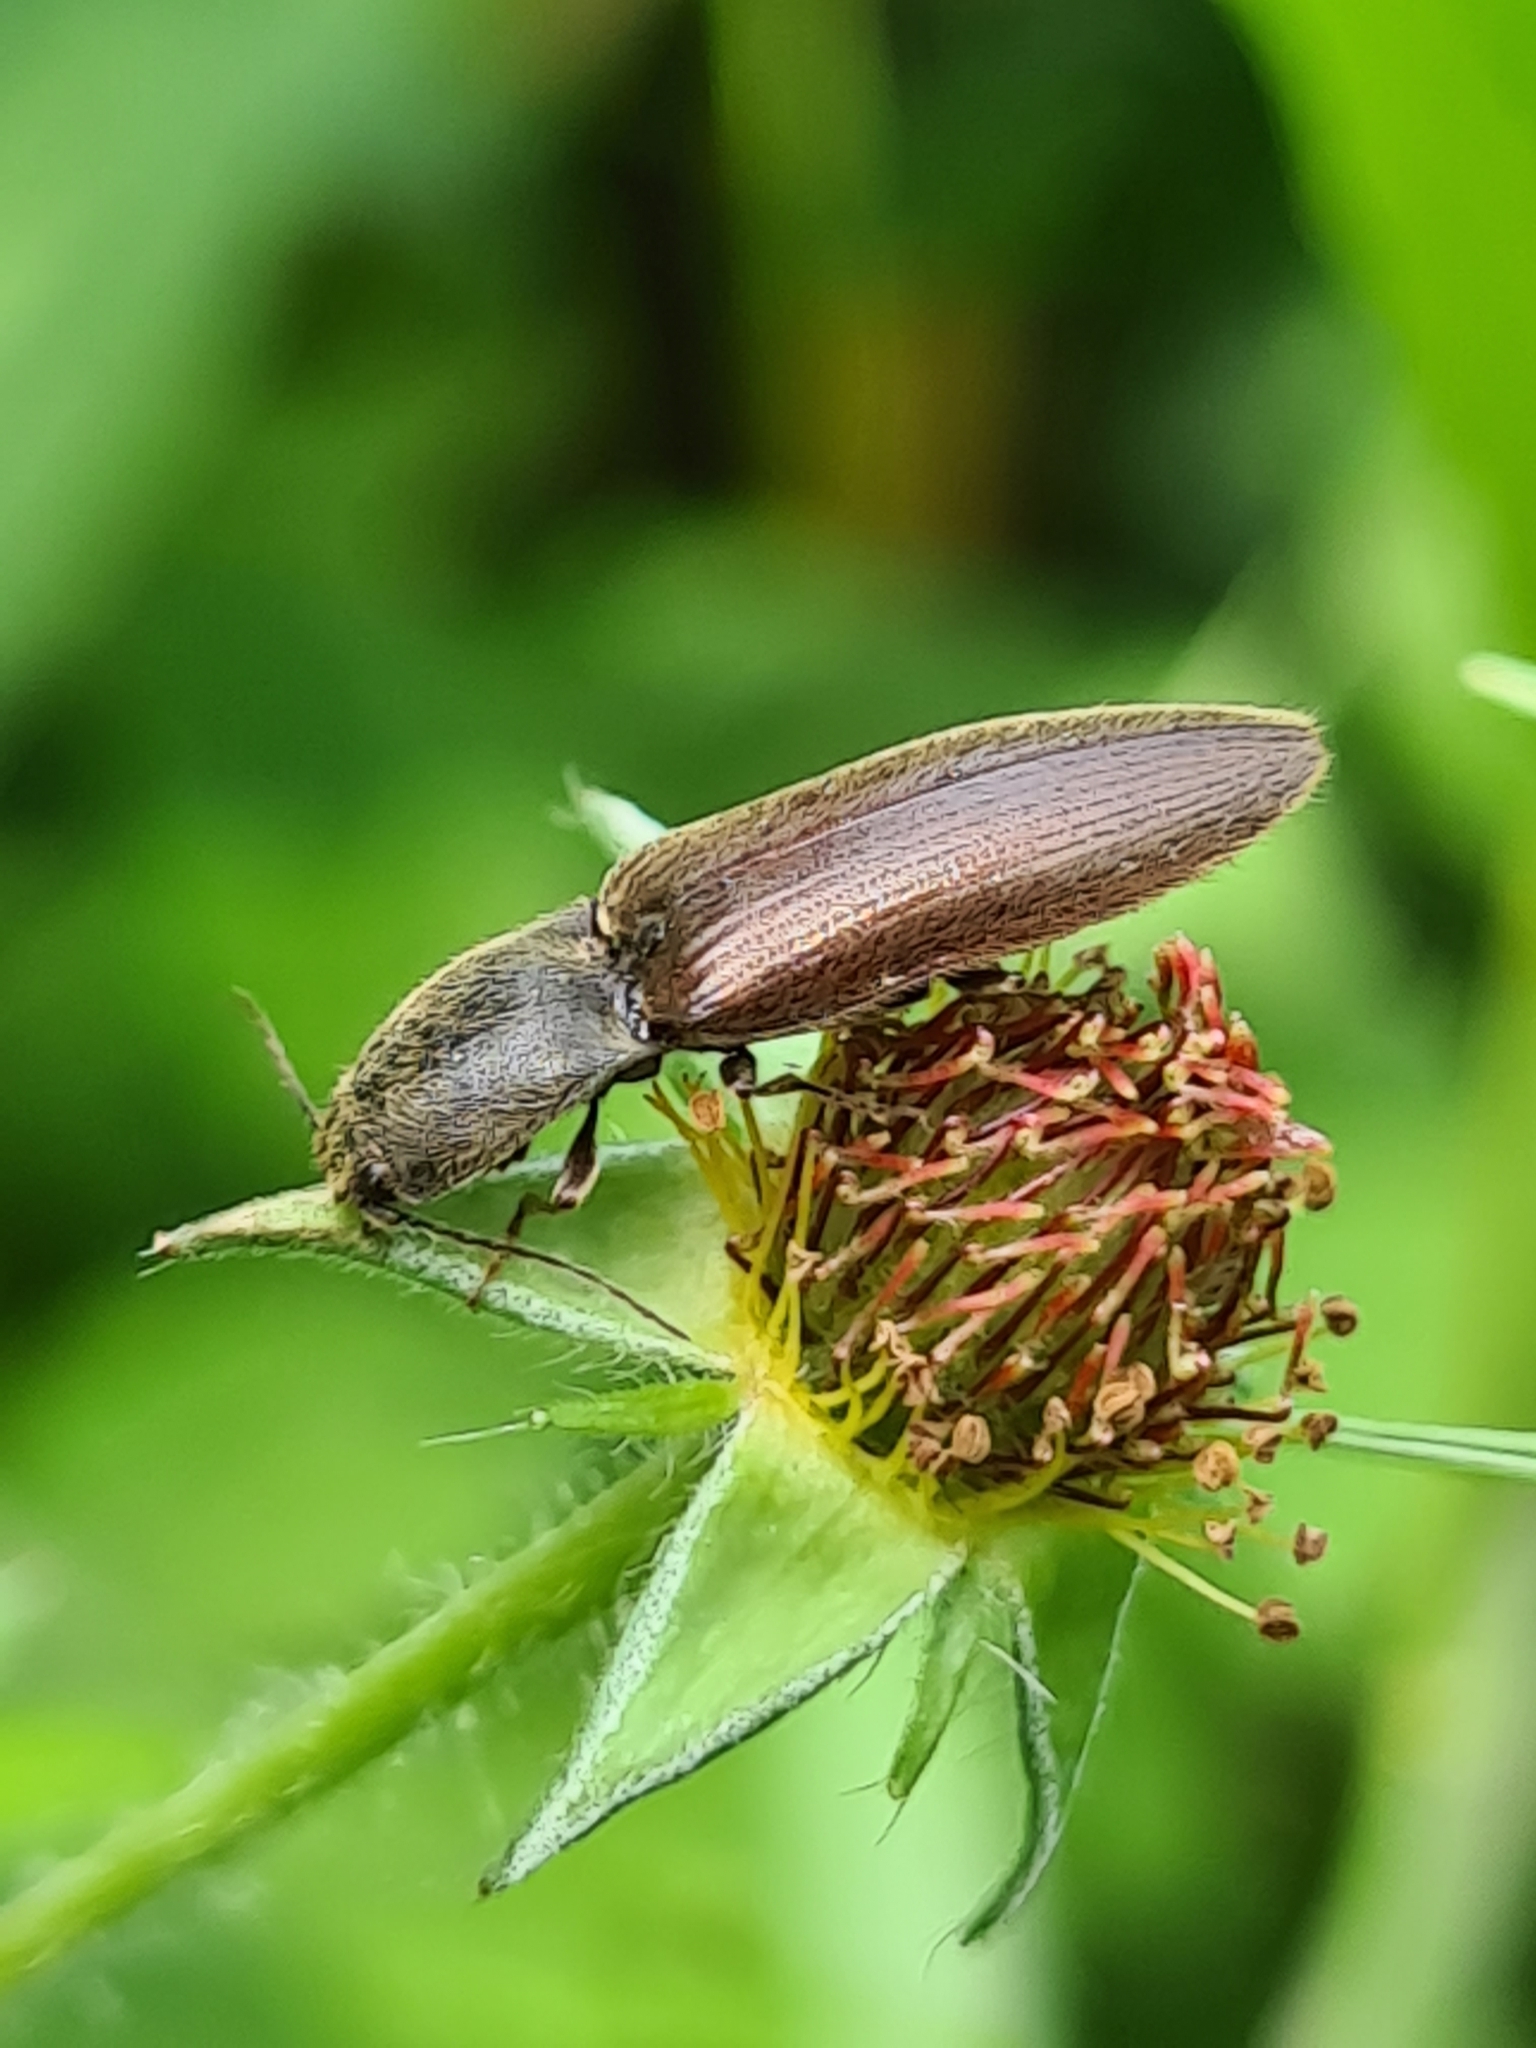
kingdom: Animalia
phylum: Arthropoda
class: Insecta
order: Coleoptera
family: Elateridae
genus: Athous
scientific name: Athous haemorrhoidalis
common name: Red-brown click beetle
